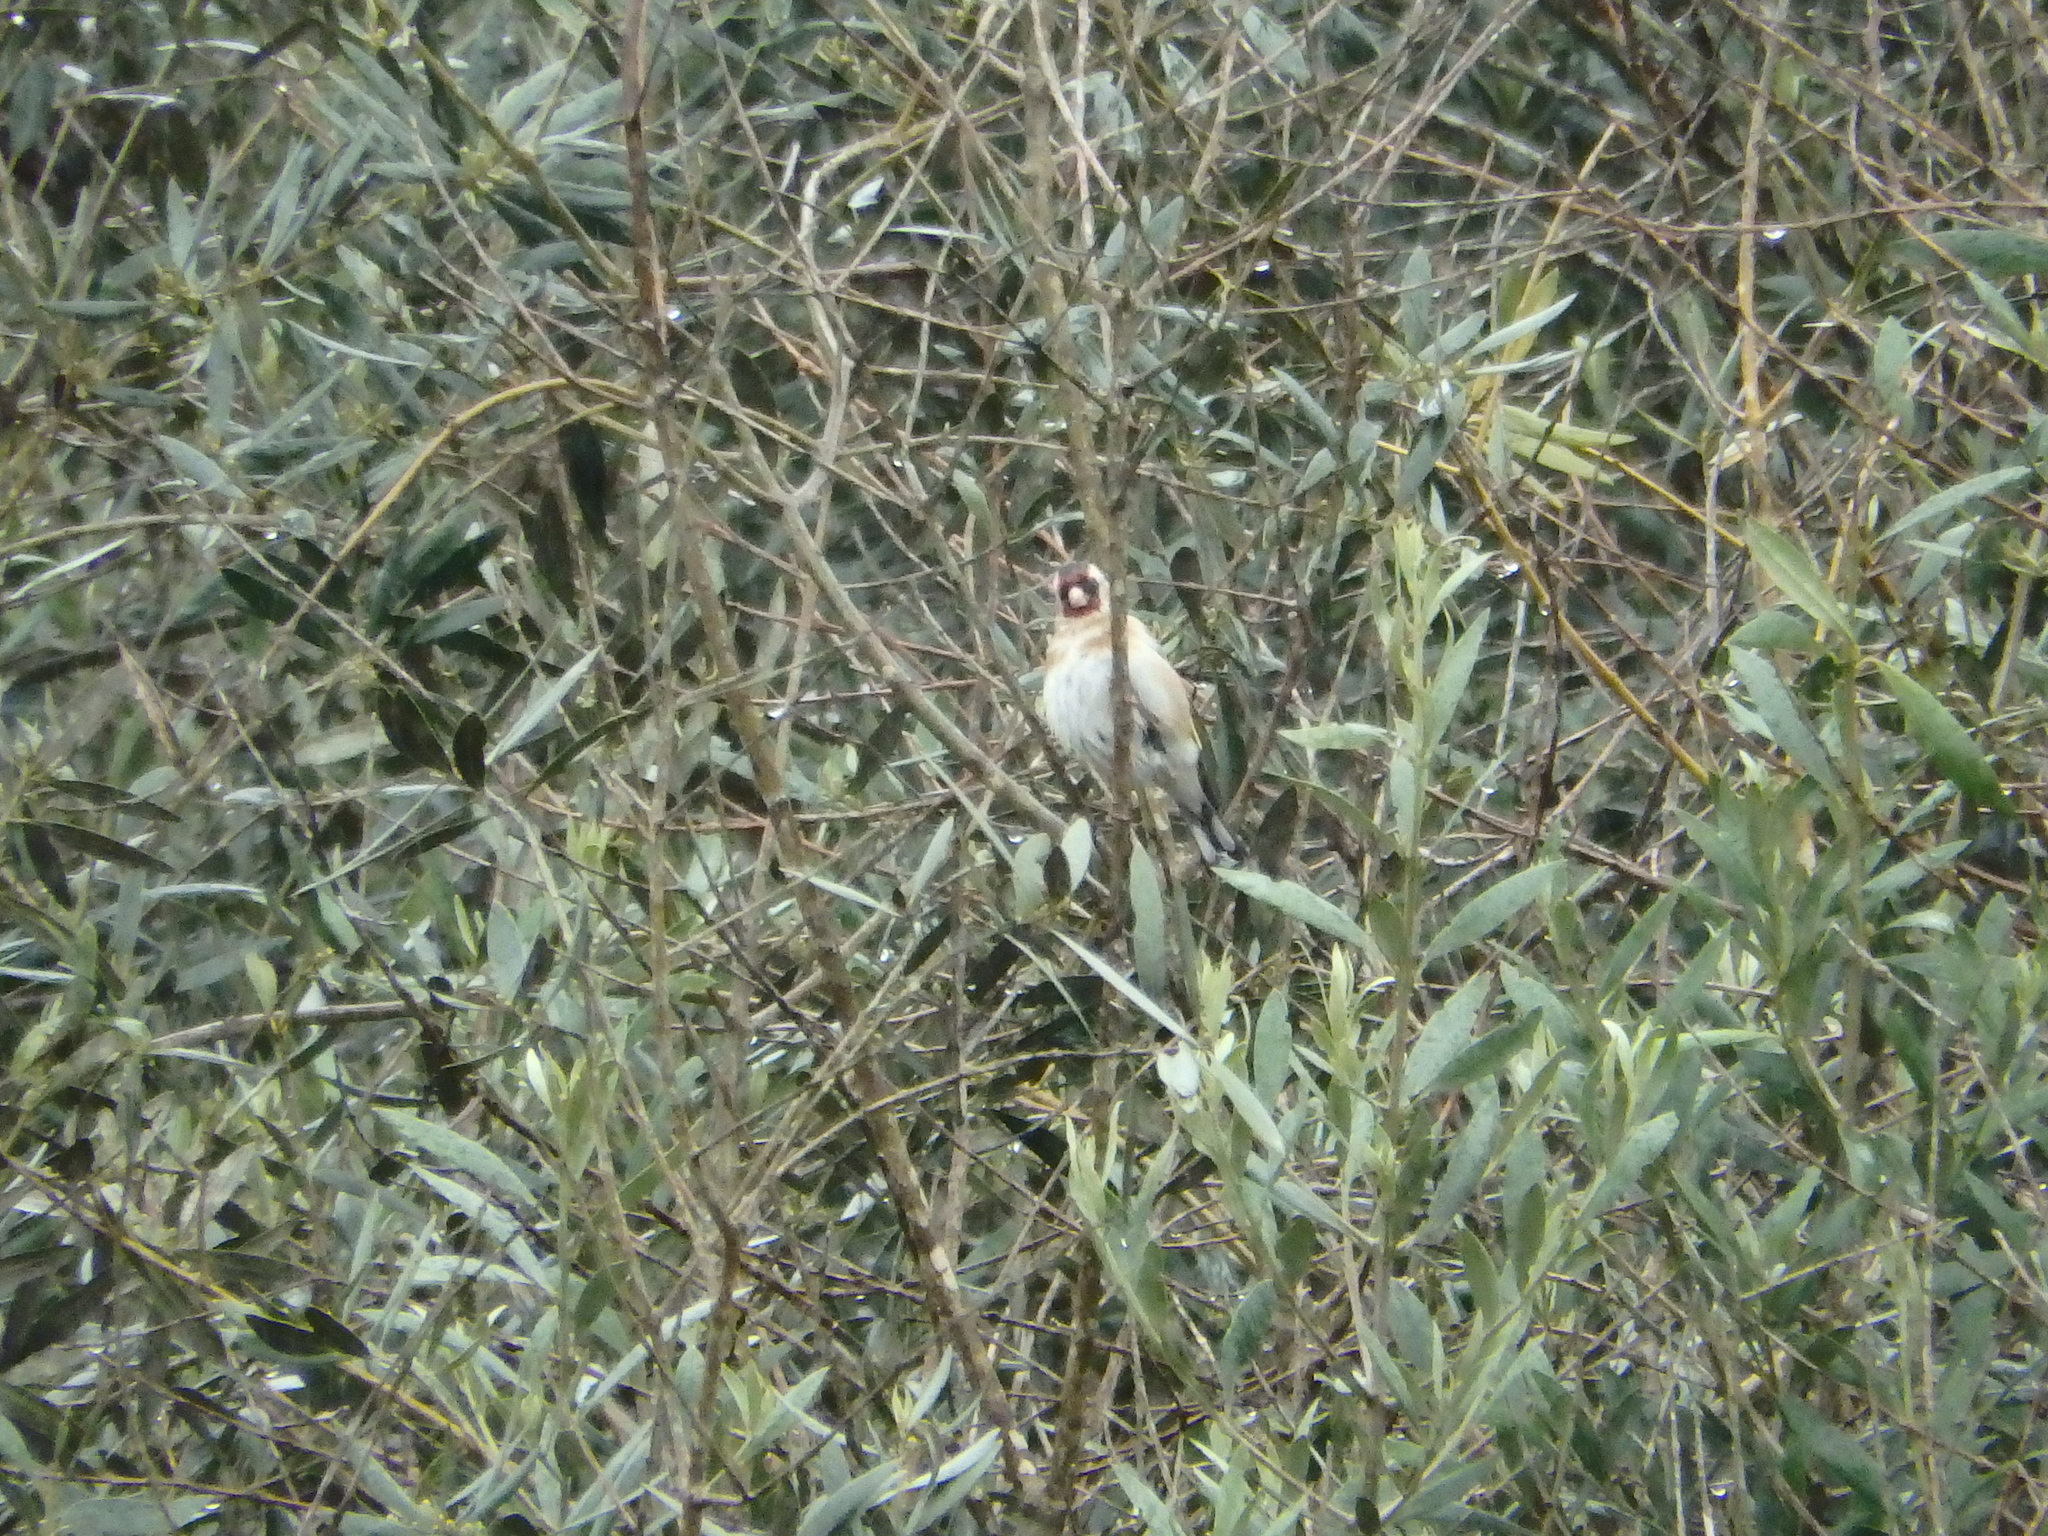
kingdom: Animalia
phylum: Chordata
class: Aves
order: Passeriformes
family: Fringillidae
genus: Carduelis
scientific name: Carduelis carduelis
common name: European goldfinch
